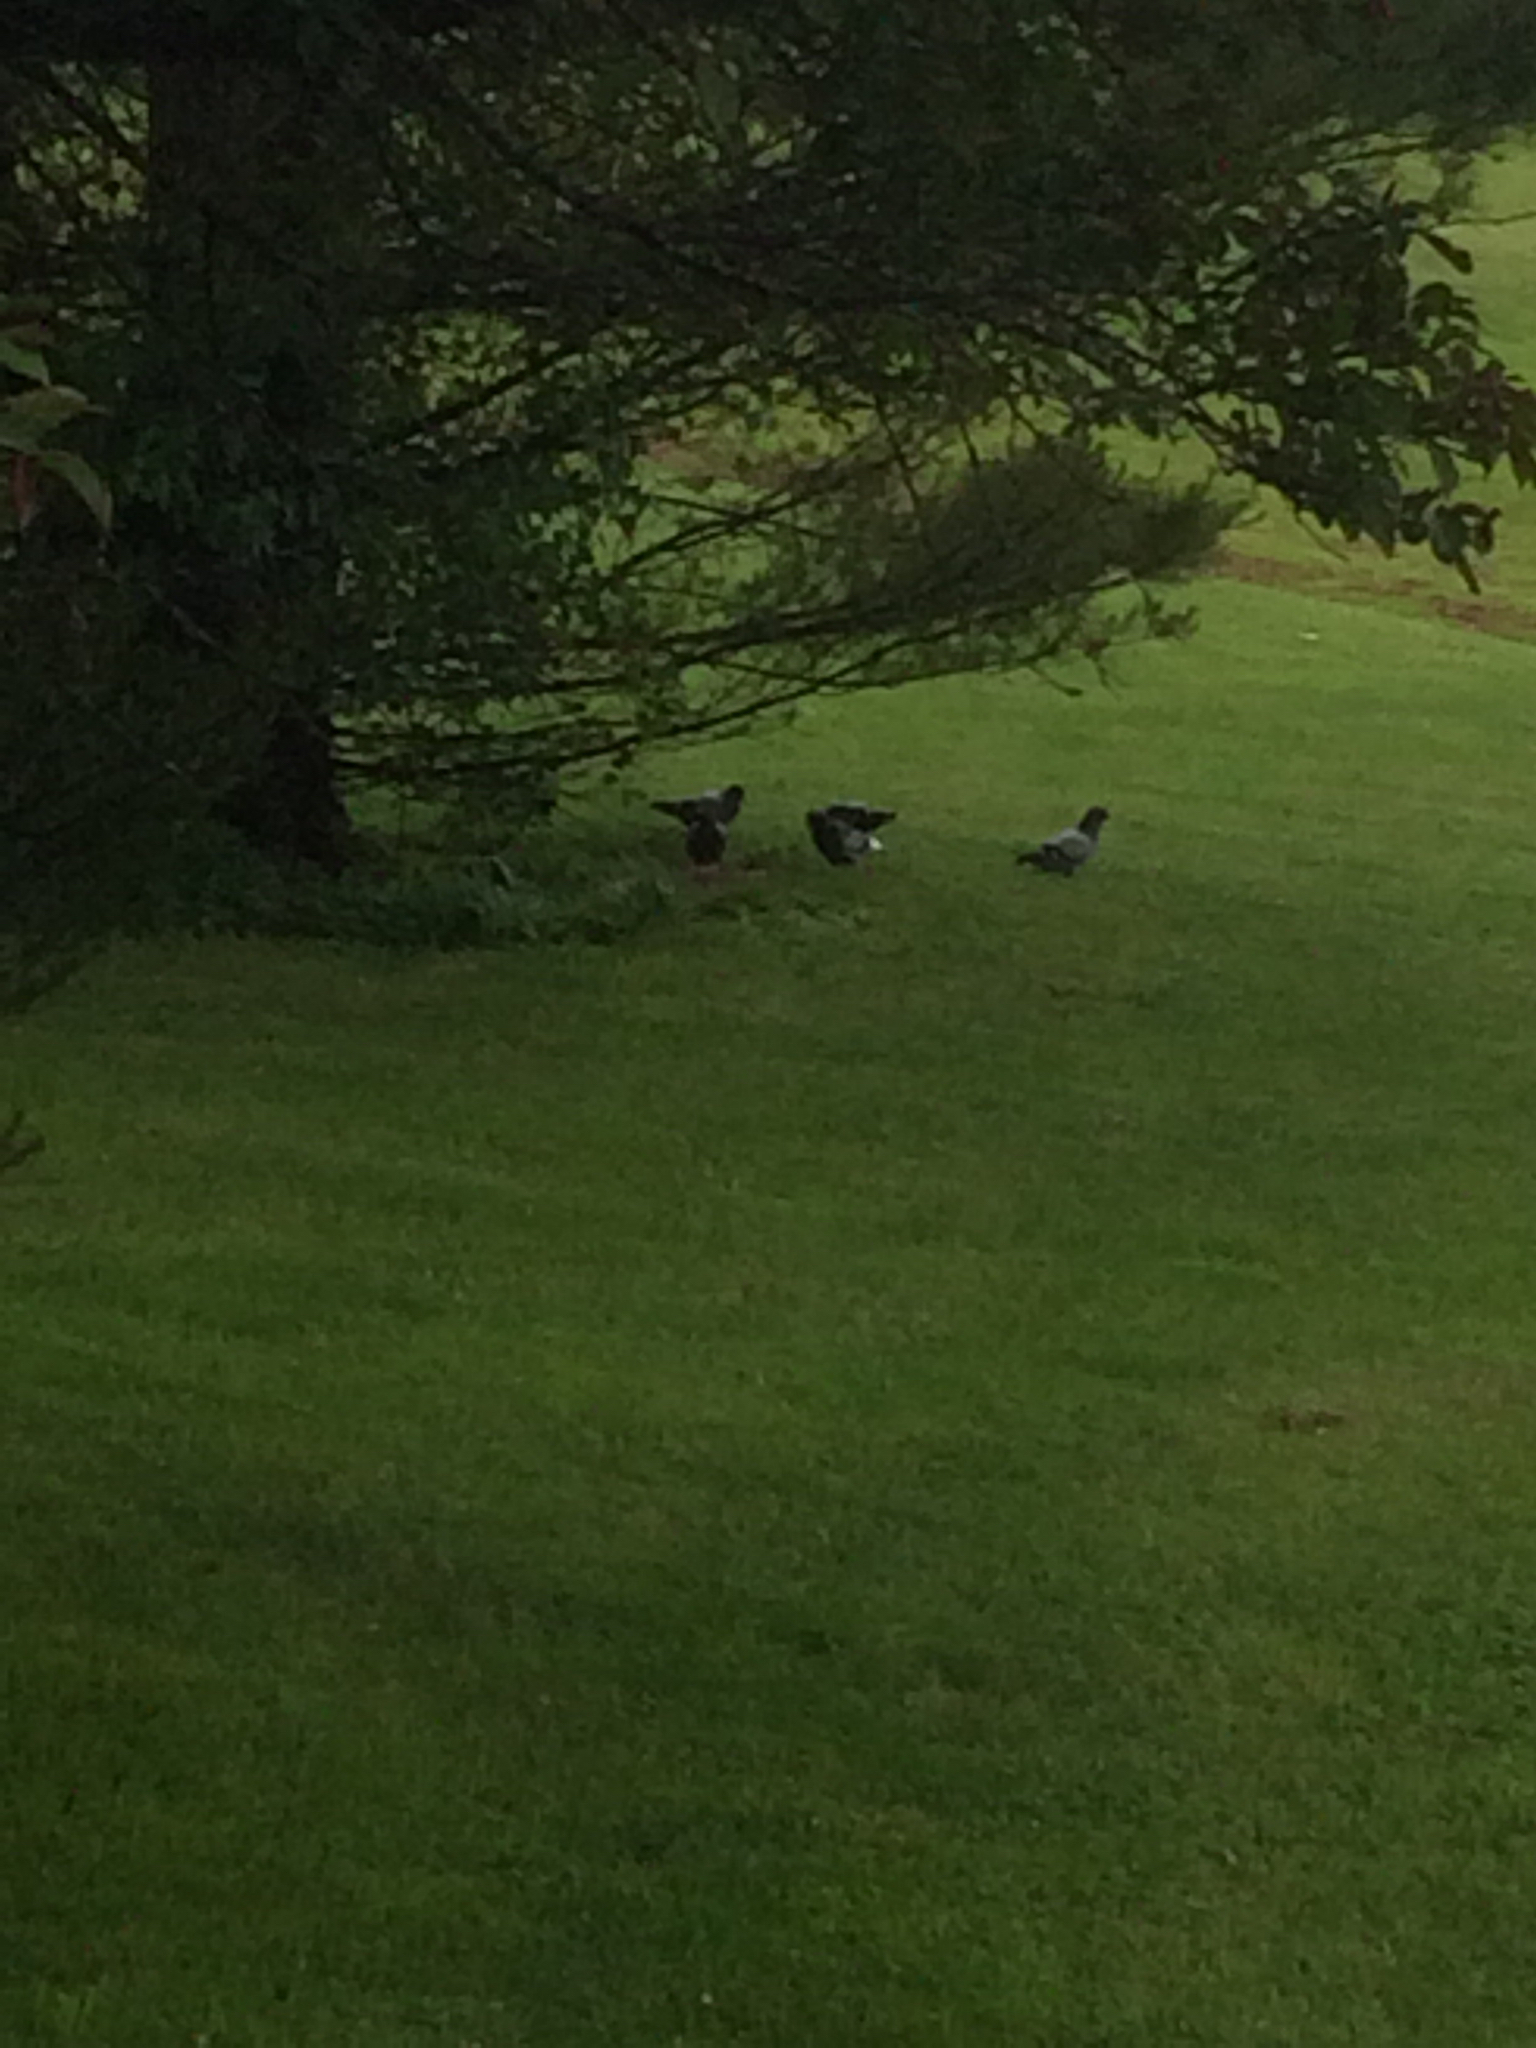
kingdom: Animalia
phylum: Chordata
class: Aves
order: Columbiformes
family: Columbidae
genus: Columba
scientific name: Columba livia
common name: Rock pigeon
